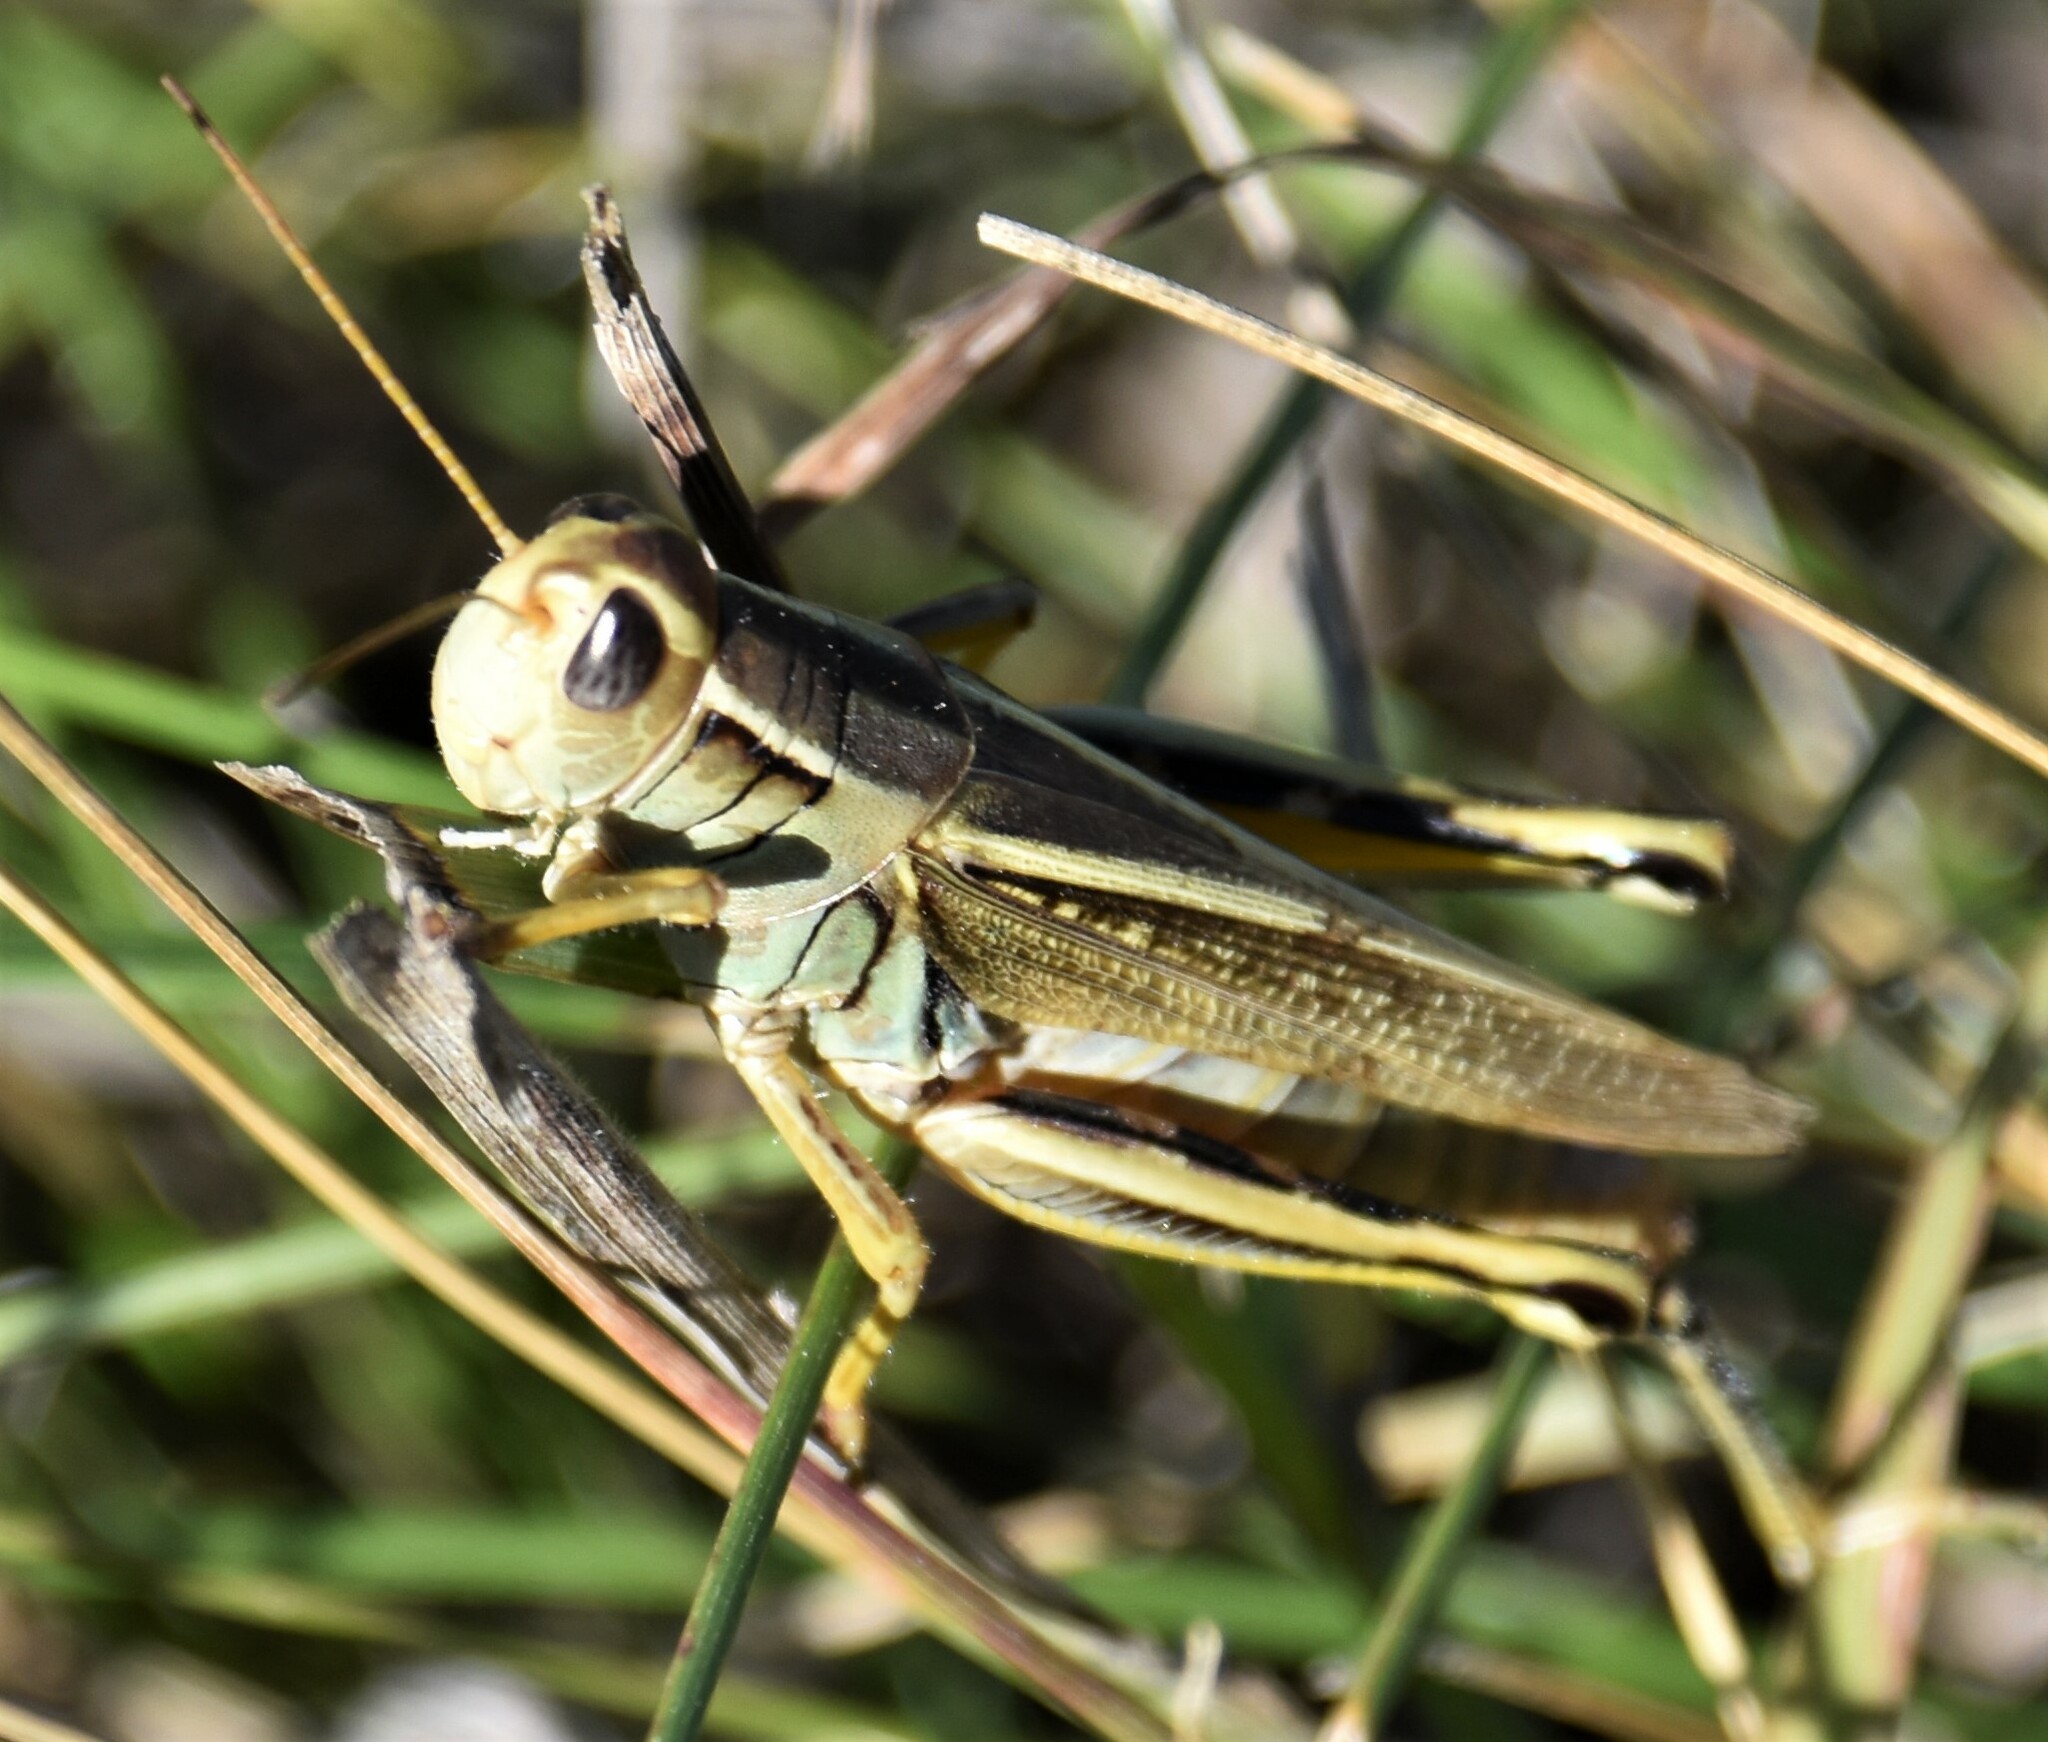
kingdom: Animalia
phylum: Arthropoda
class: Insecta
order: Orthoptera
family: Acrididae
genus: Melanoplus
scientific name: Melanoplus bivittatus
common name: Two-striped grasshopper
